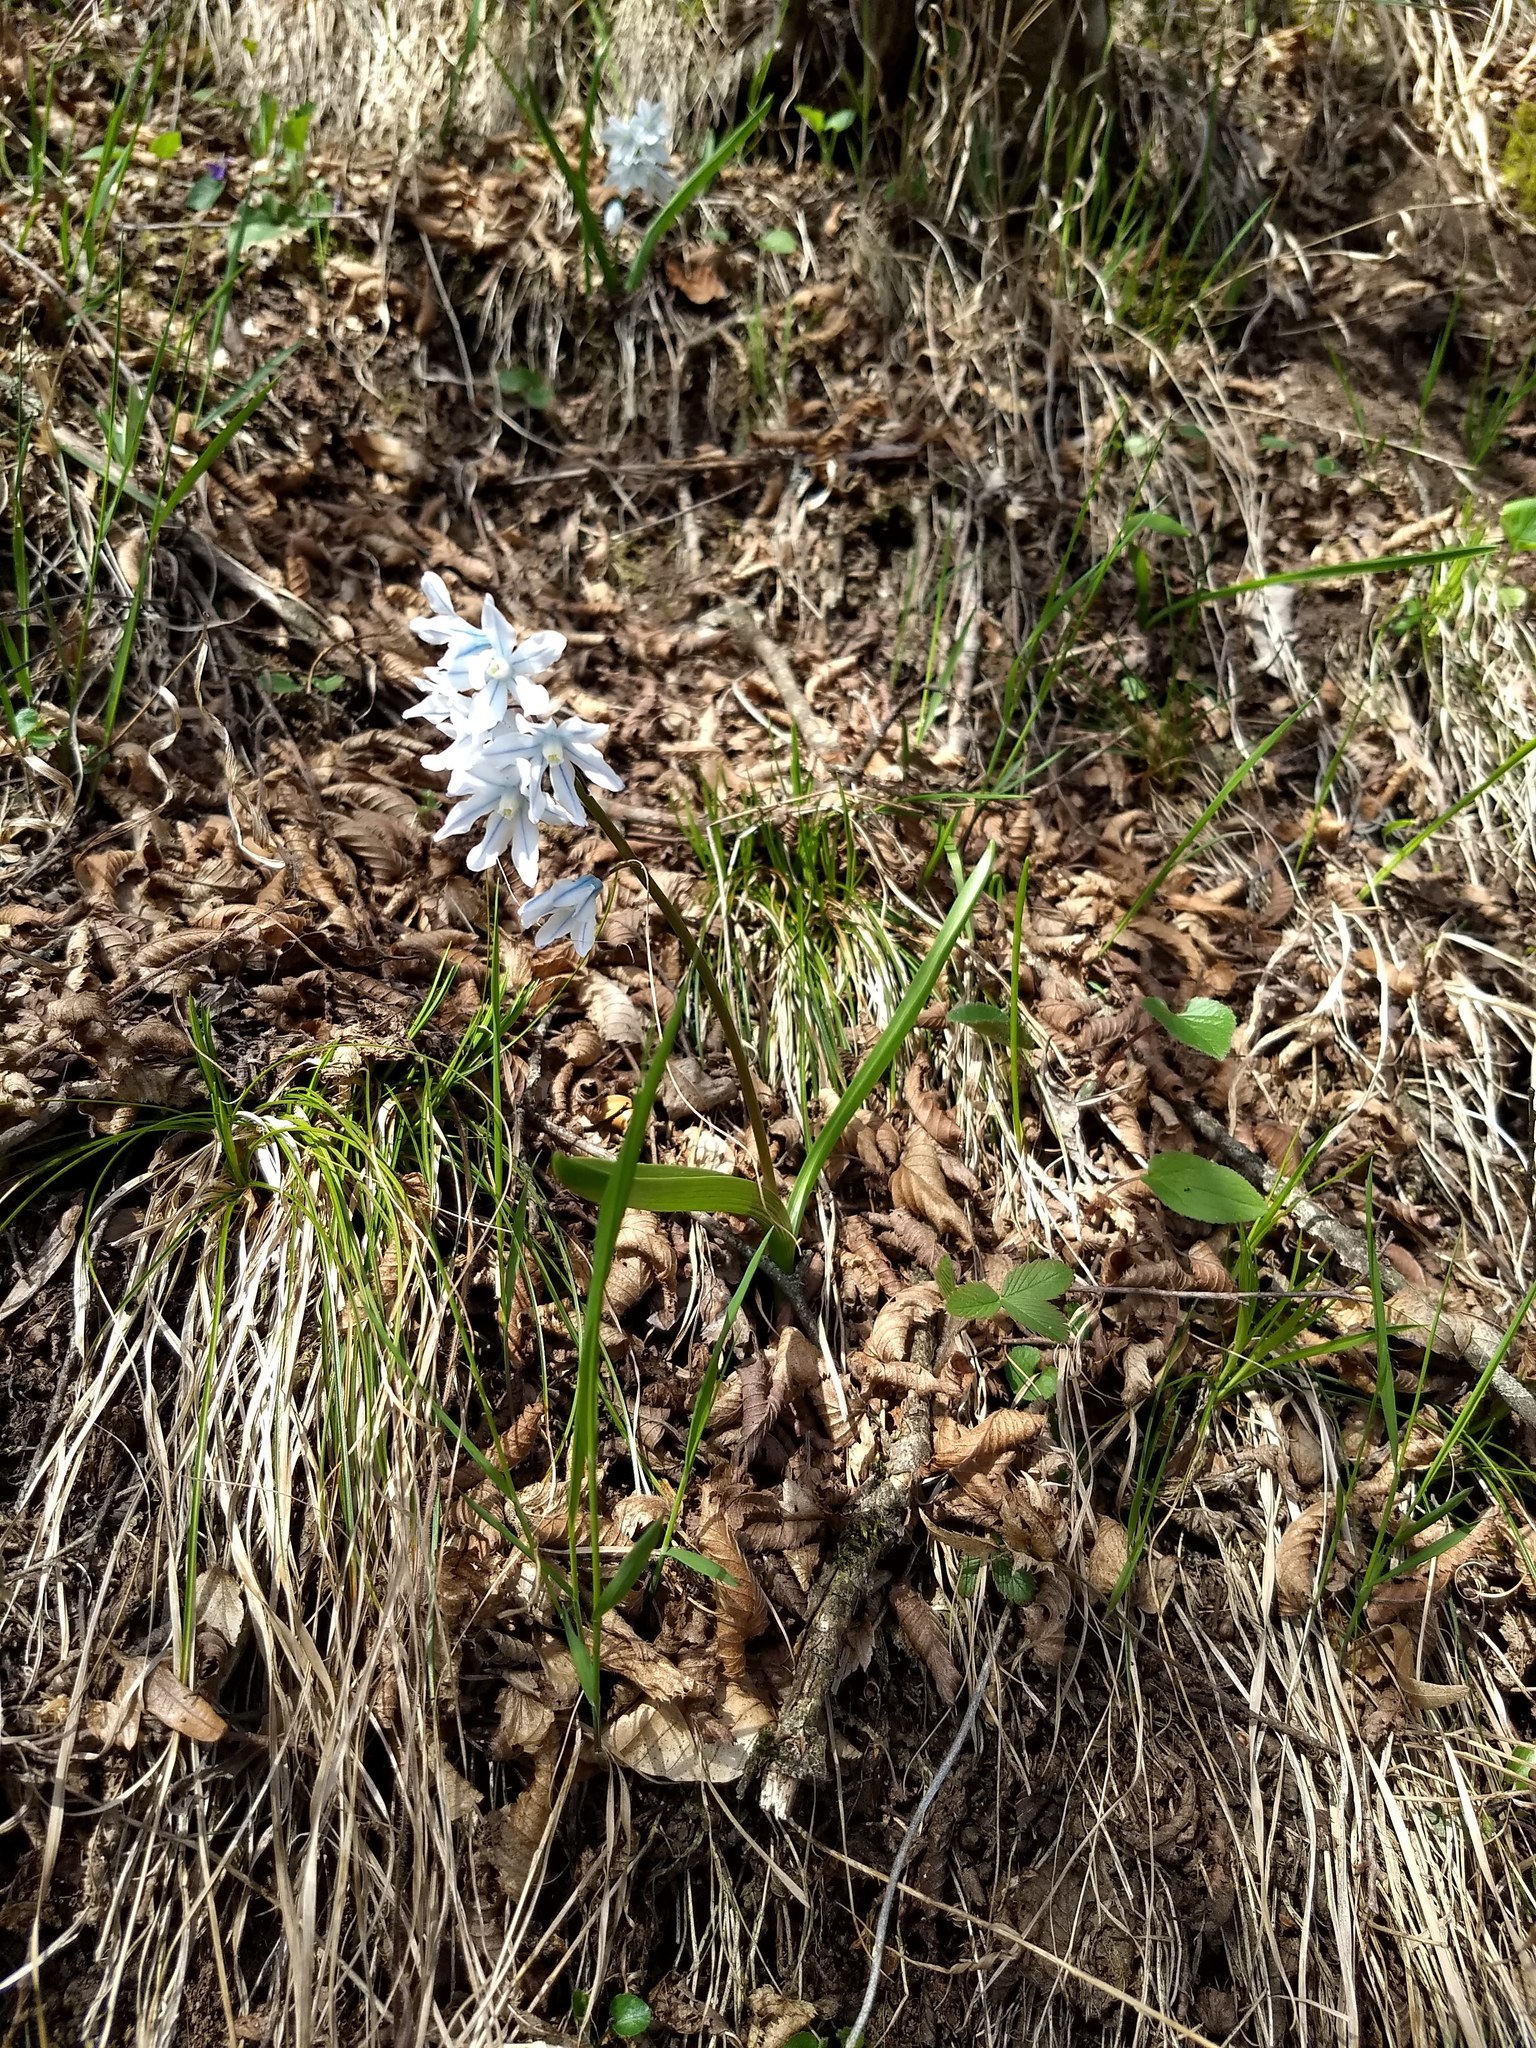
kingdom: Plantae
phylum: Tracheophyta
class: Liliopsida
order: Asparagales
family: Asparagaceae
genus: Puschkinia
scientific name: Puschkinia scilloides
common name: Striped squill
